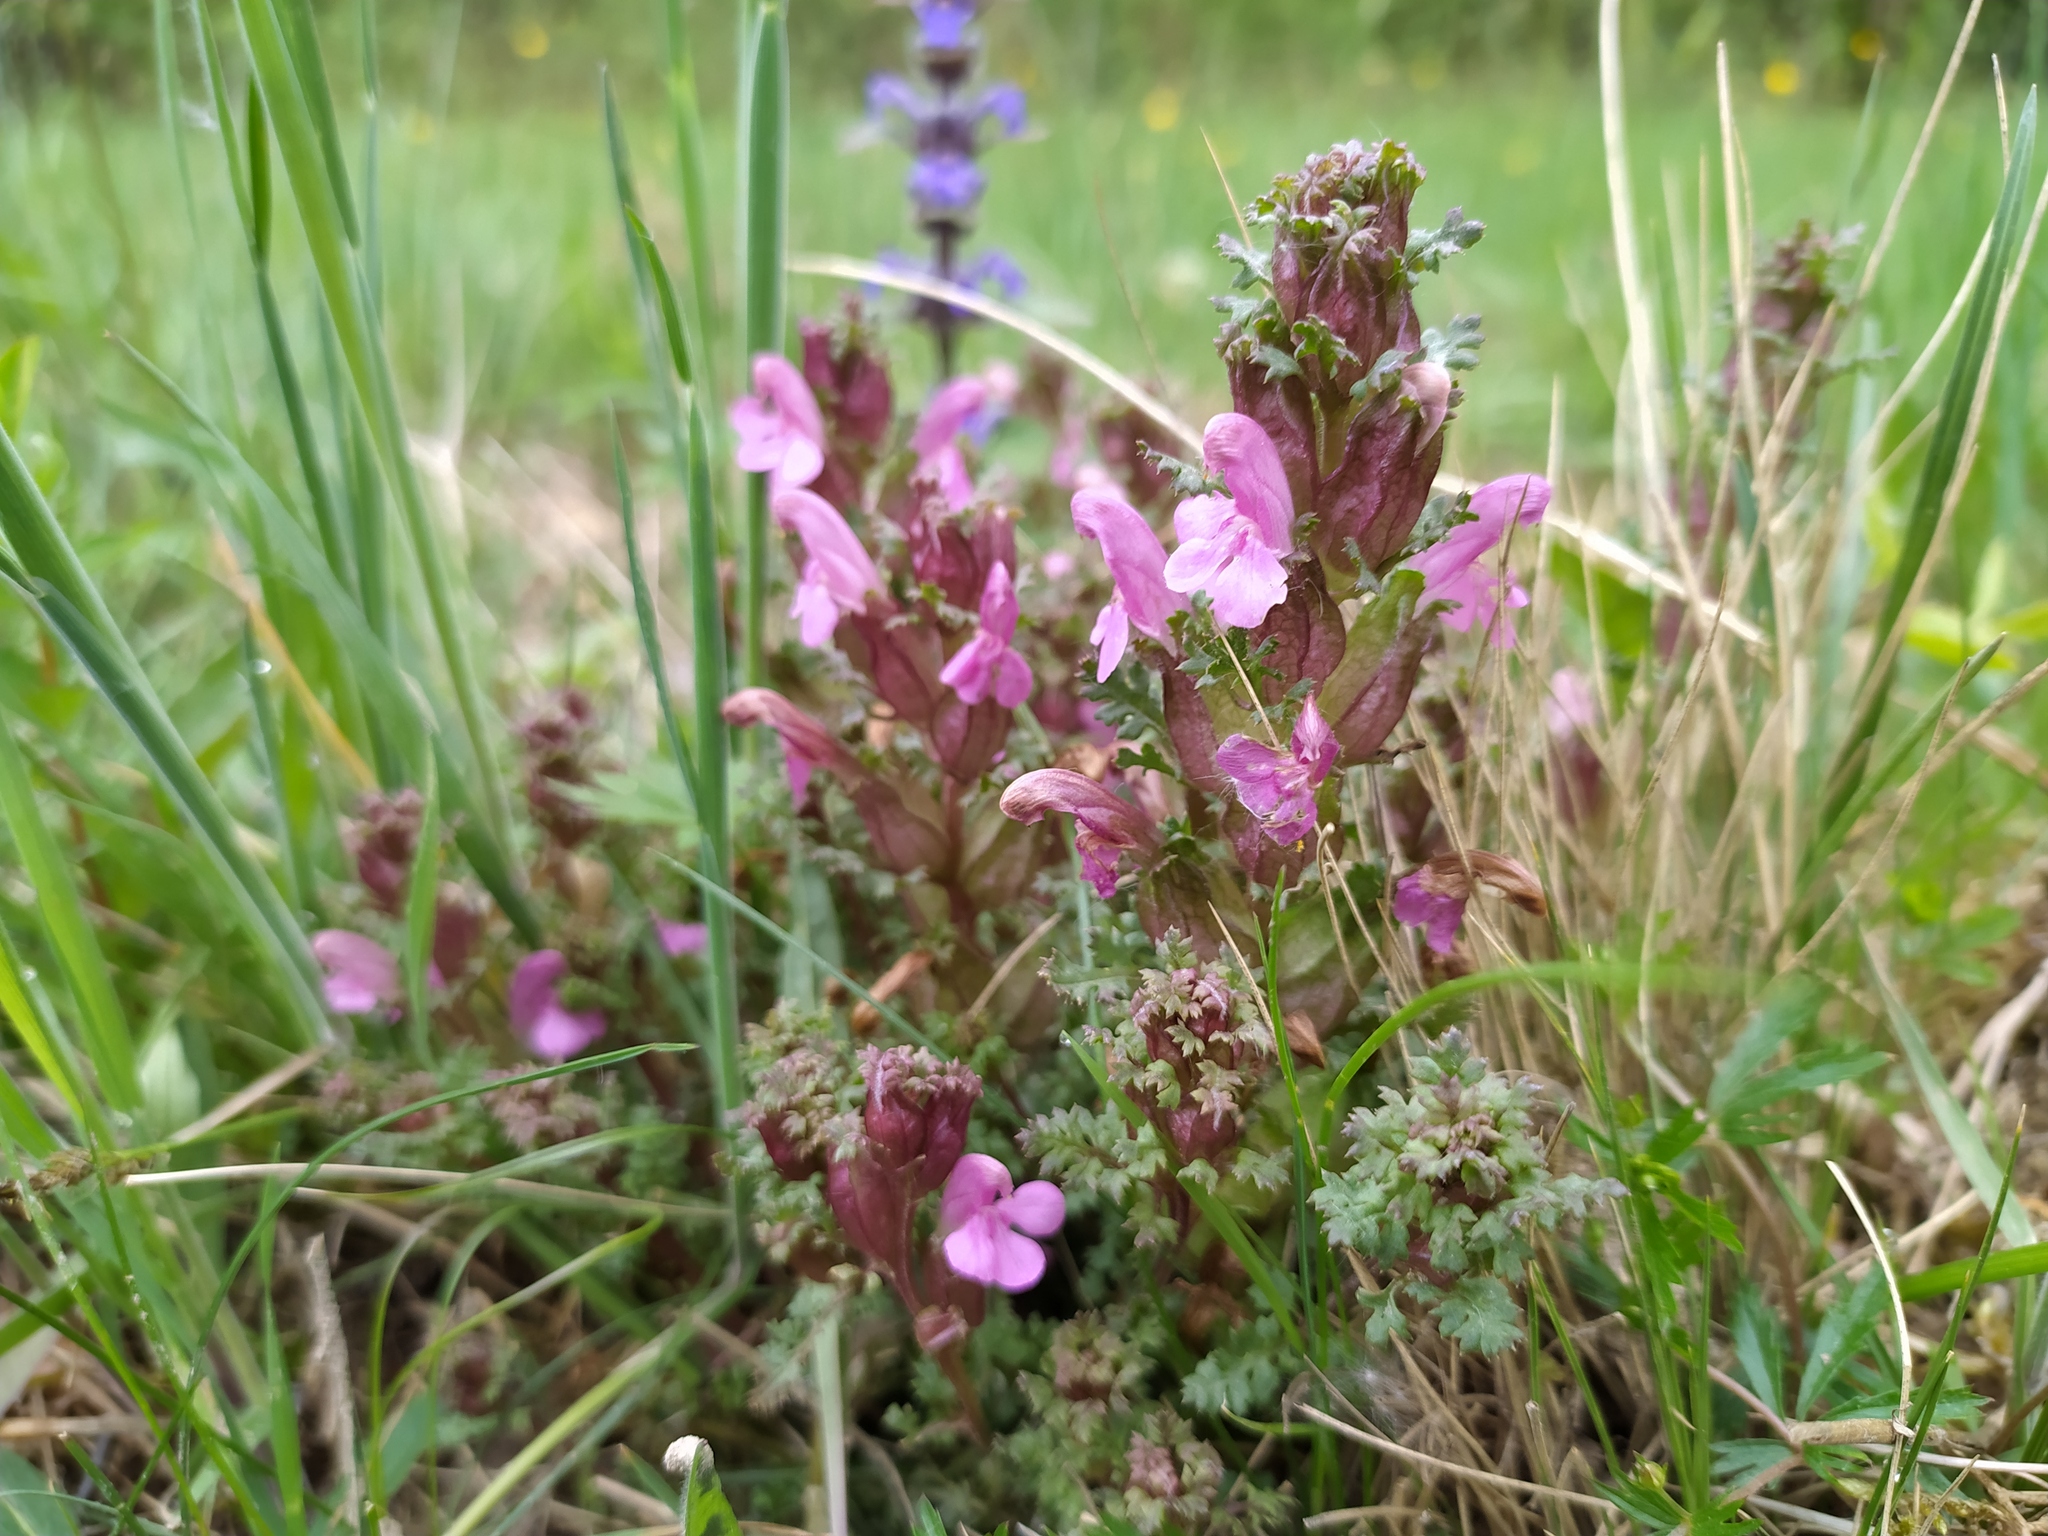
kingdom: Plantae
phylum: Tracheophyta
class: Magnoliopsida
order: Lamiales
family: Orobanchaceae
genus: Pedicularis
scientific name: Pedicularis sylvatica
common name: Lousewort
